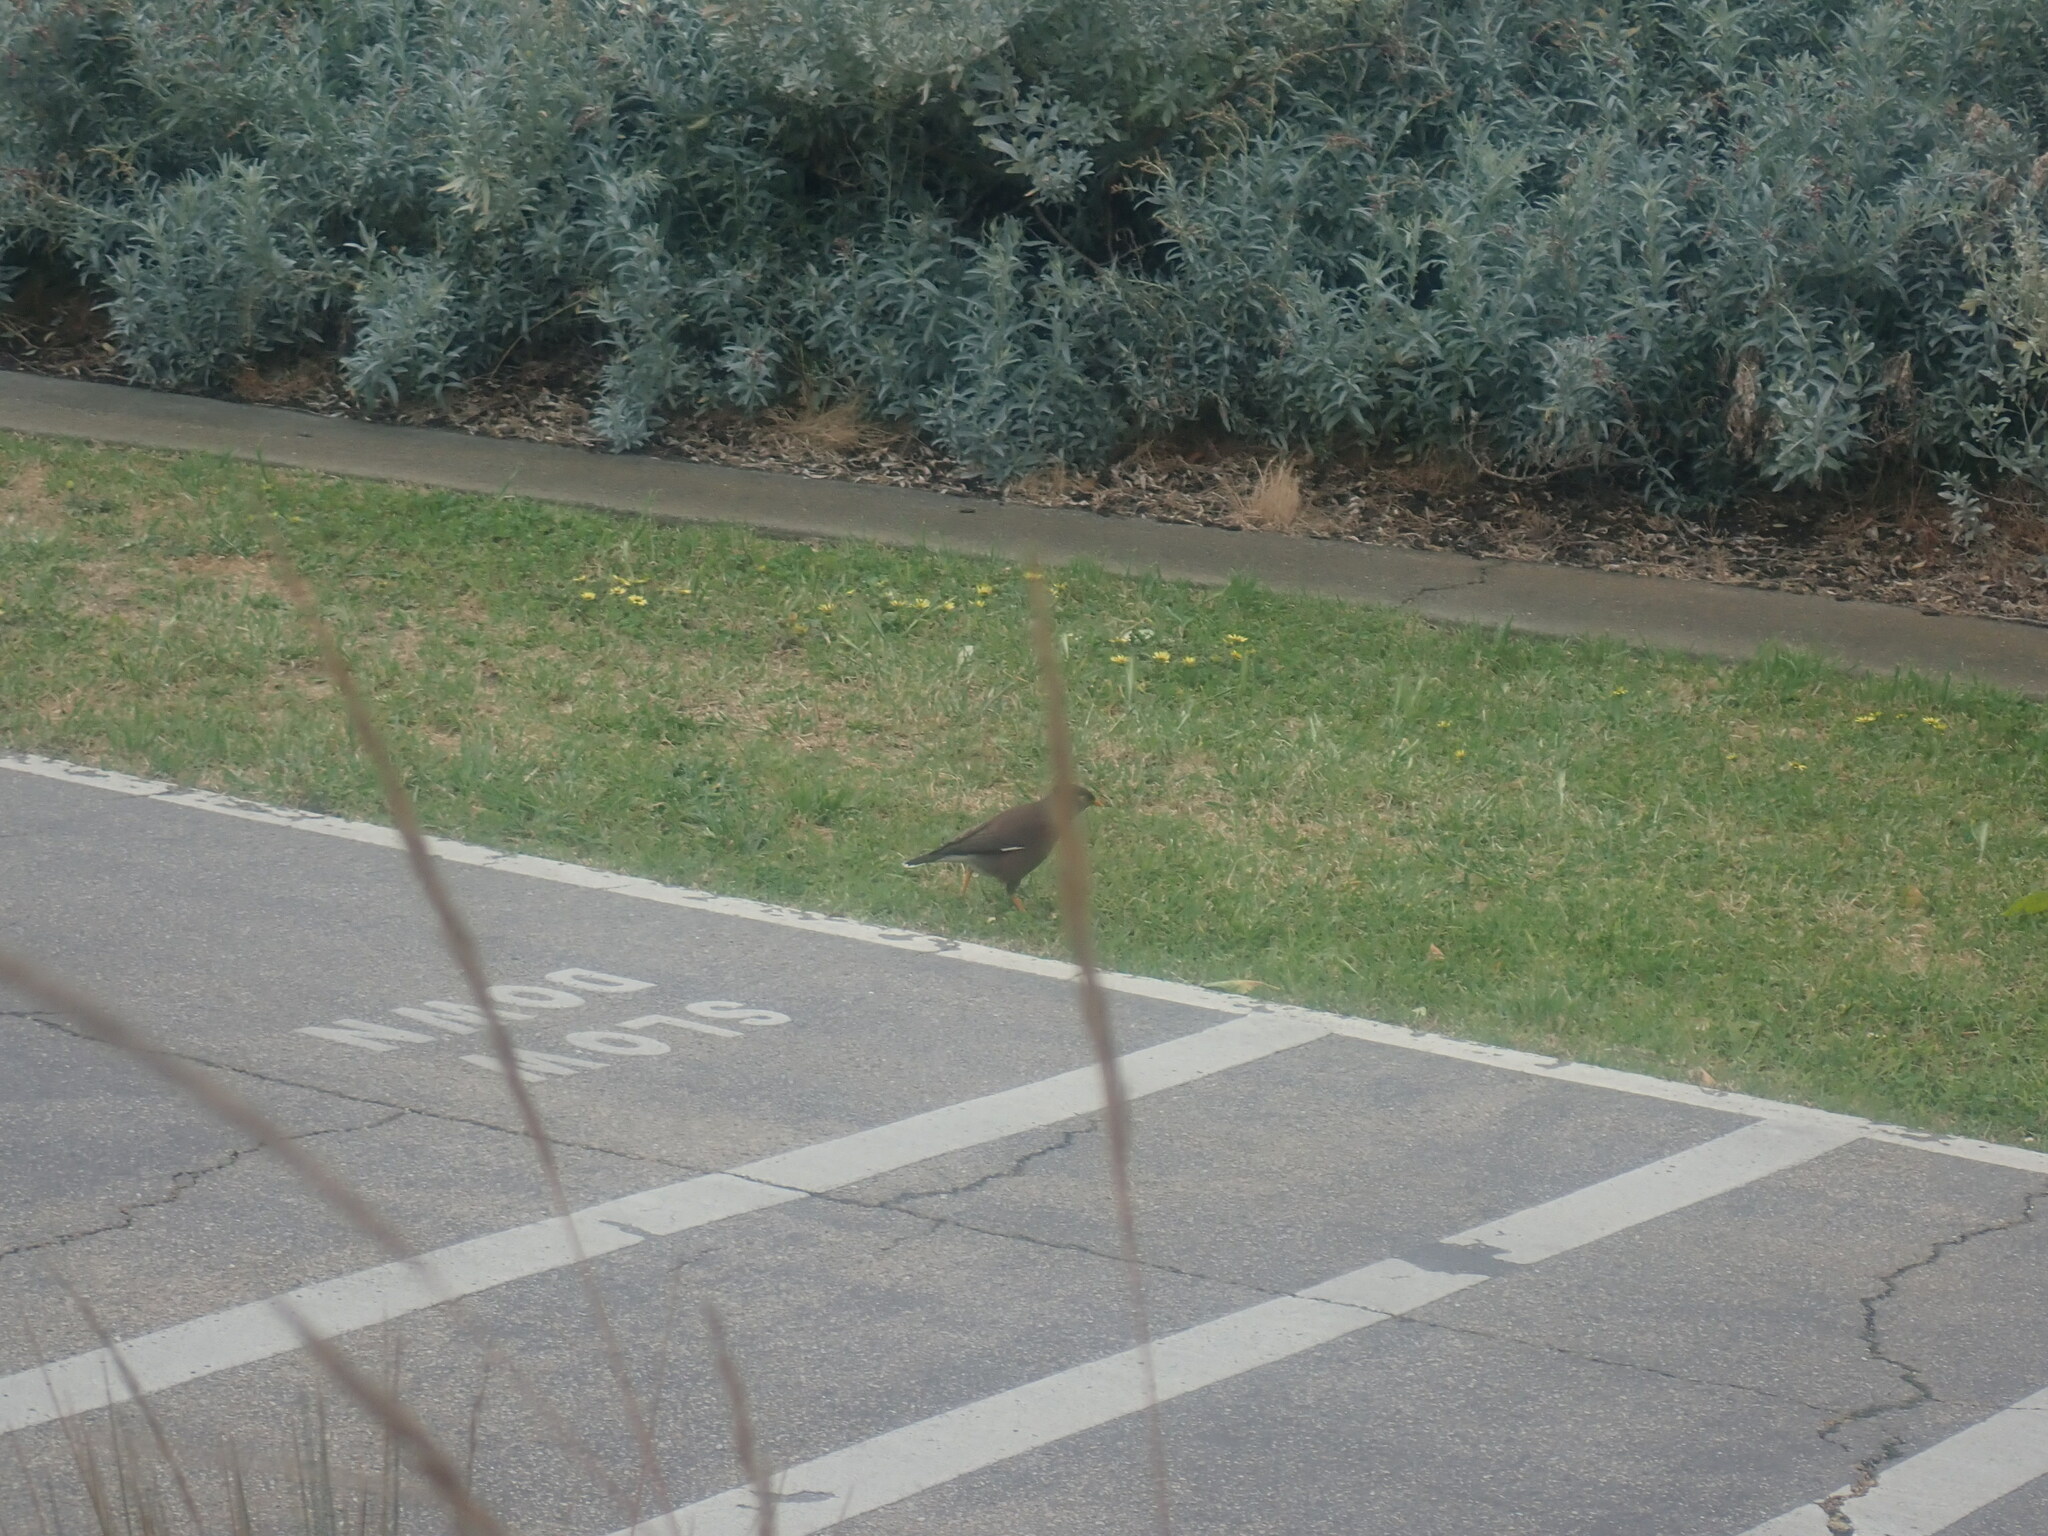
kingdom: Animalia
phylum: Chordata
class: Aves
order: Passeriformes
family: Sturnidae
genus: Acridotheres
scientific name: Acridotheres tristis
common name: Common myna
